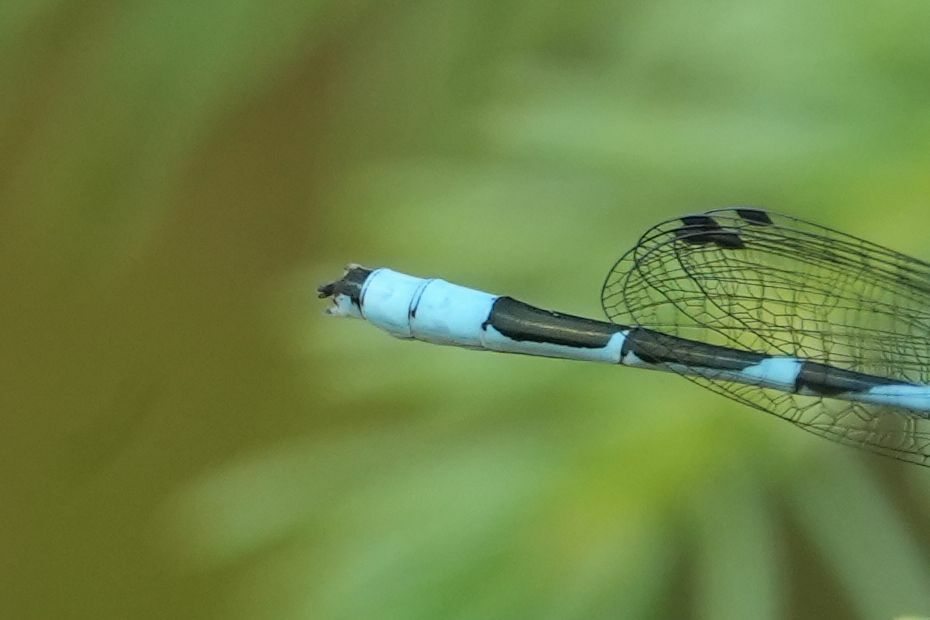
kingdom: Animalia
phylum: Arthropoda
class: Insecta
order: Odonata
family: Coenagrionidae
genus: Enallagma
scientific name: Enallagma ebrium
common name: Marsh bluet
